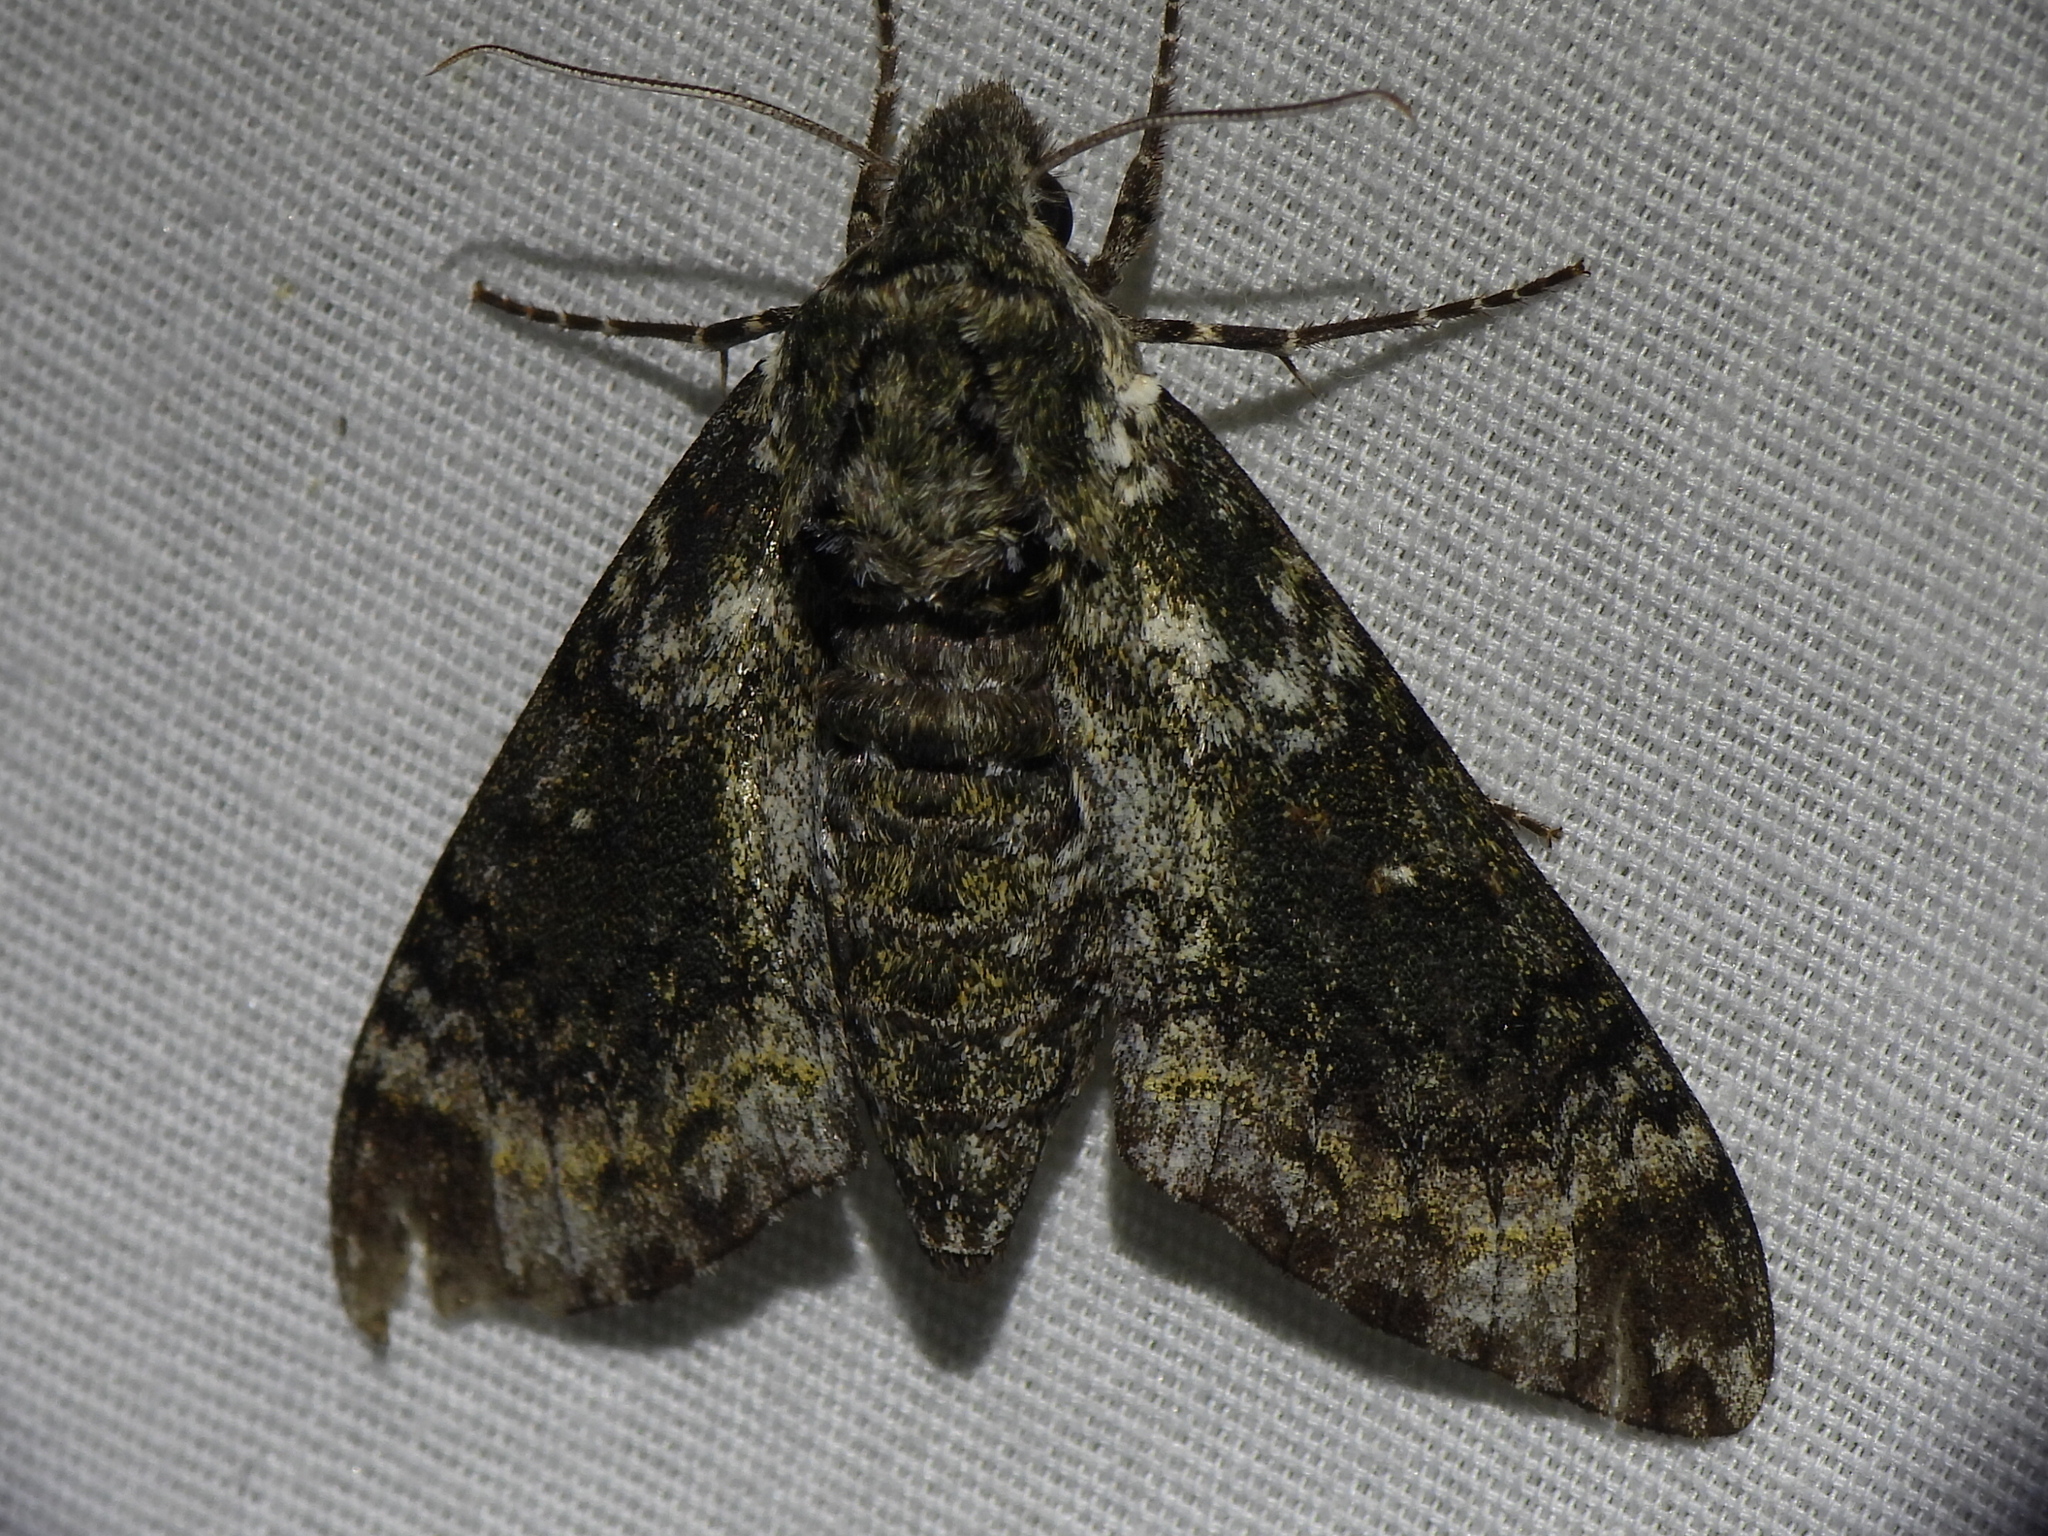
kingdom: Animalia
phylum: Arthropoda
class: Insecta
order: Lepidoptera
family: Sphingidae
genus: Dolba
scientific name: Dolba hyloeus
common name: Pawpaw sphinx
